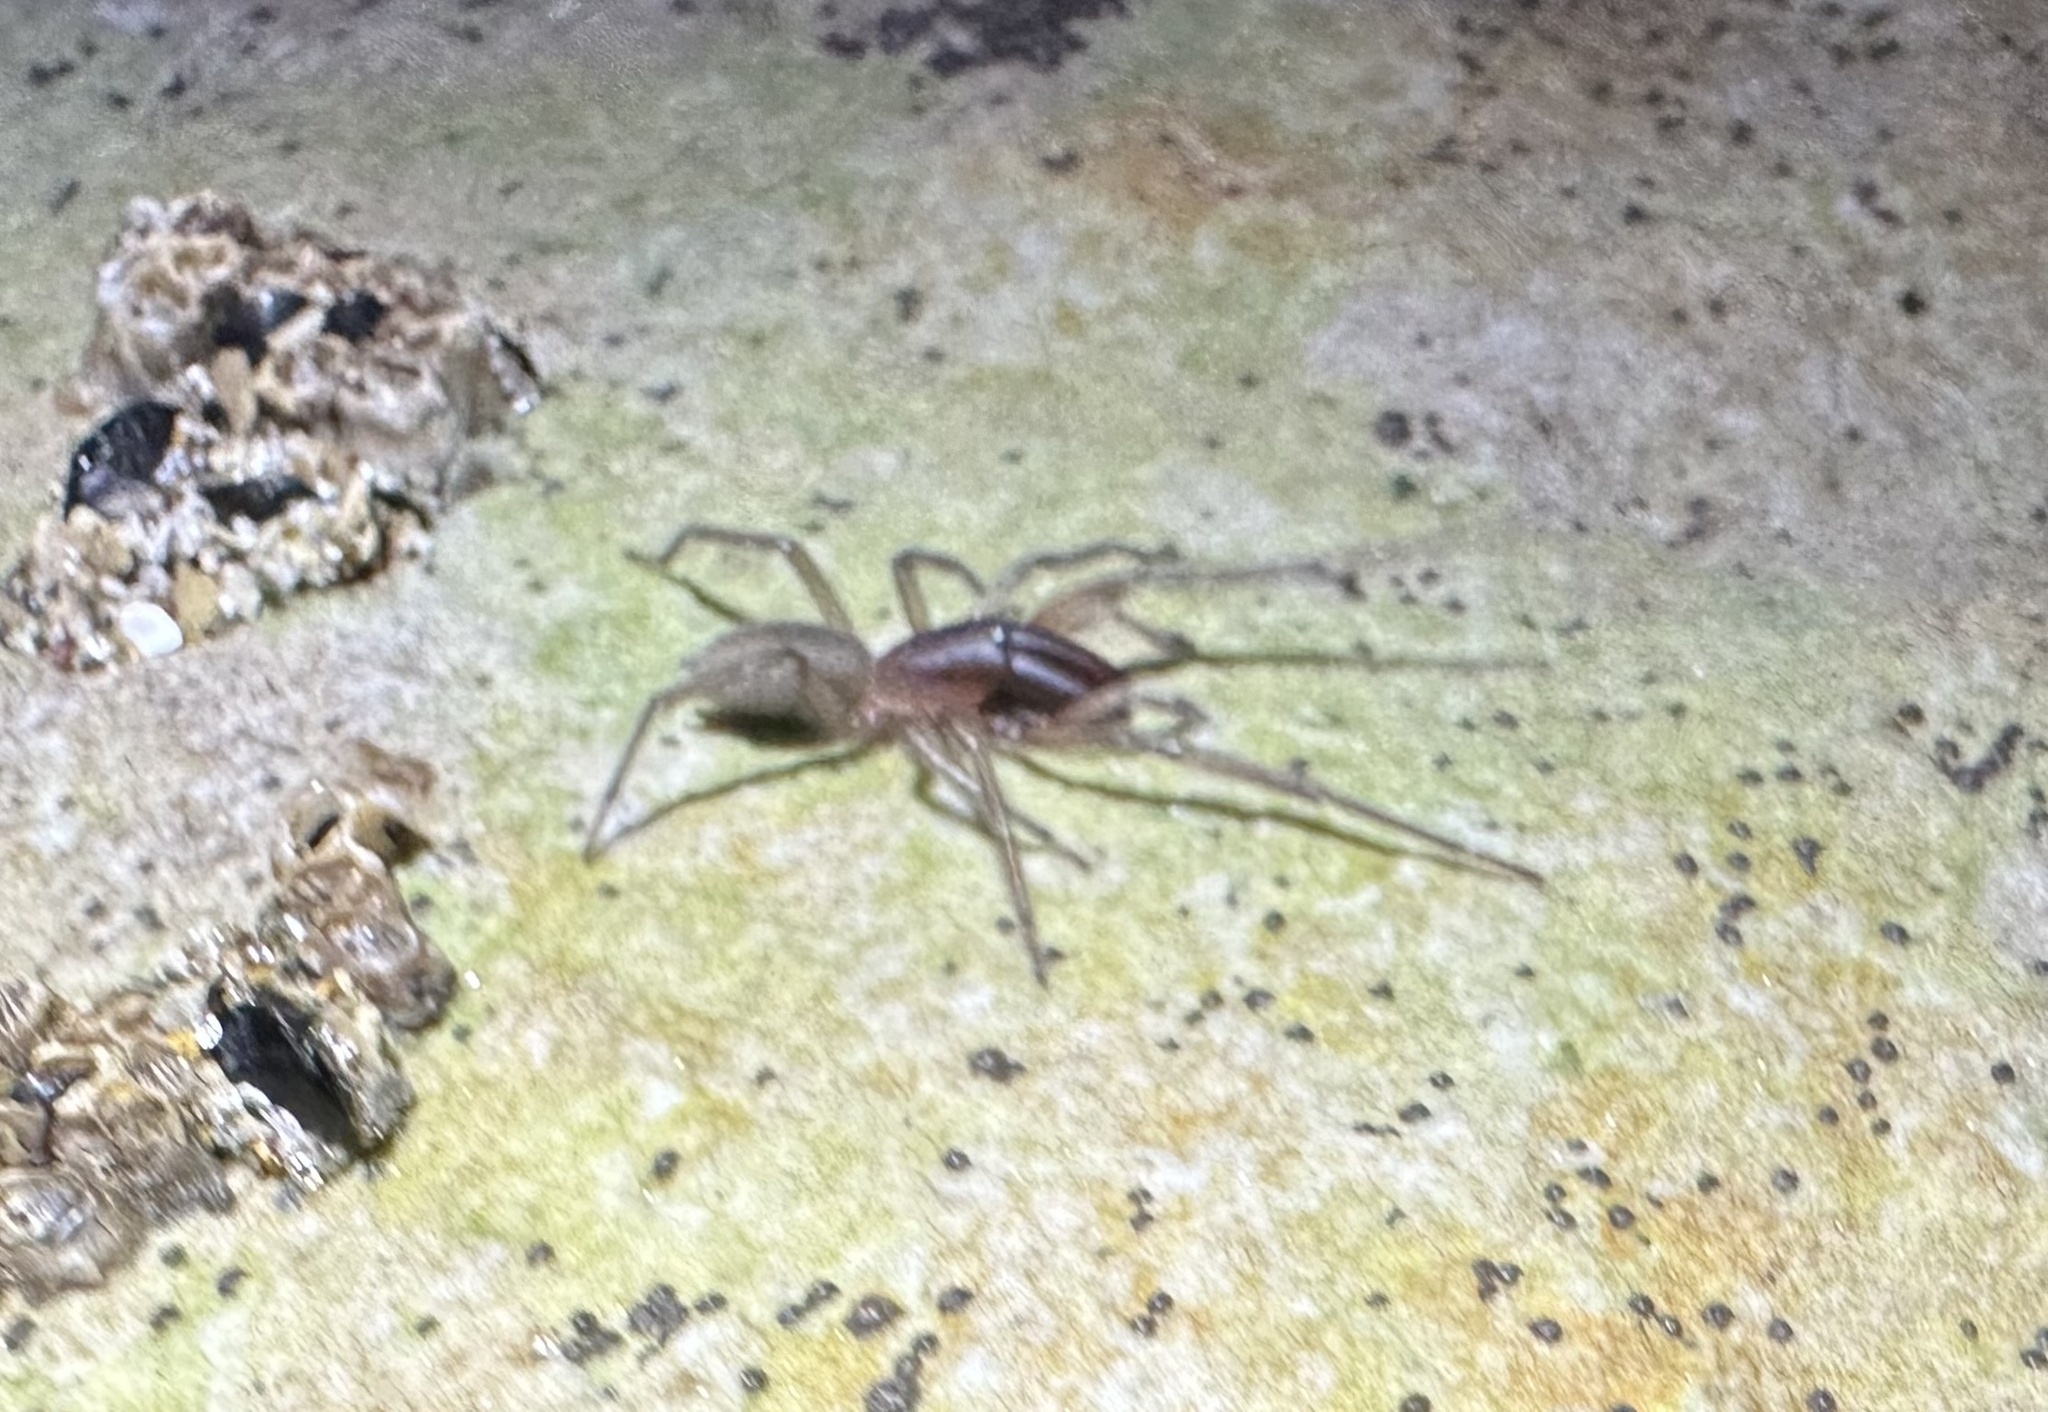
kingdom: Animalia
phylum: Arthropoda
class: Arachnida
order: Araneae
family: Desidae
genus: Desis
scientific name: Desis marina
